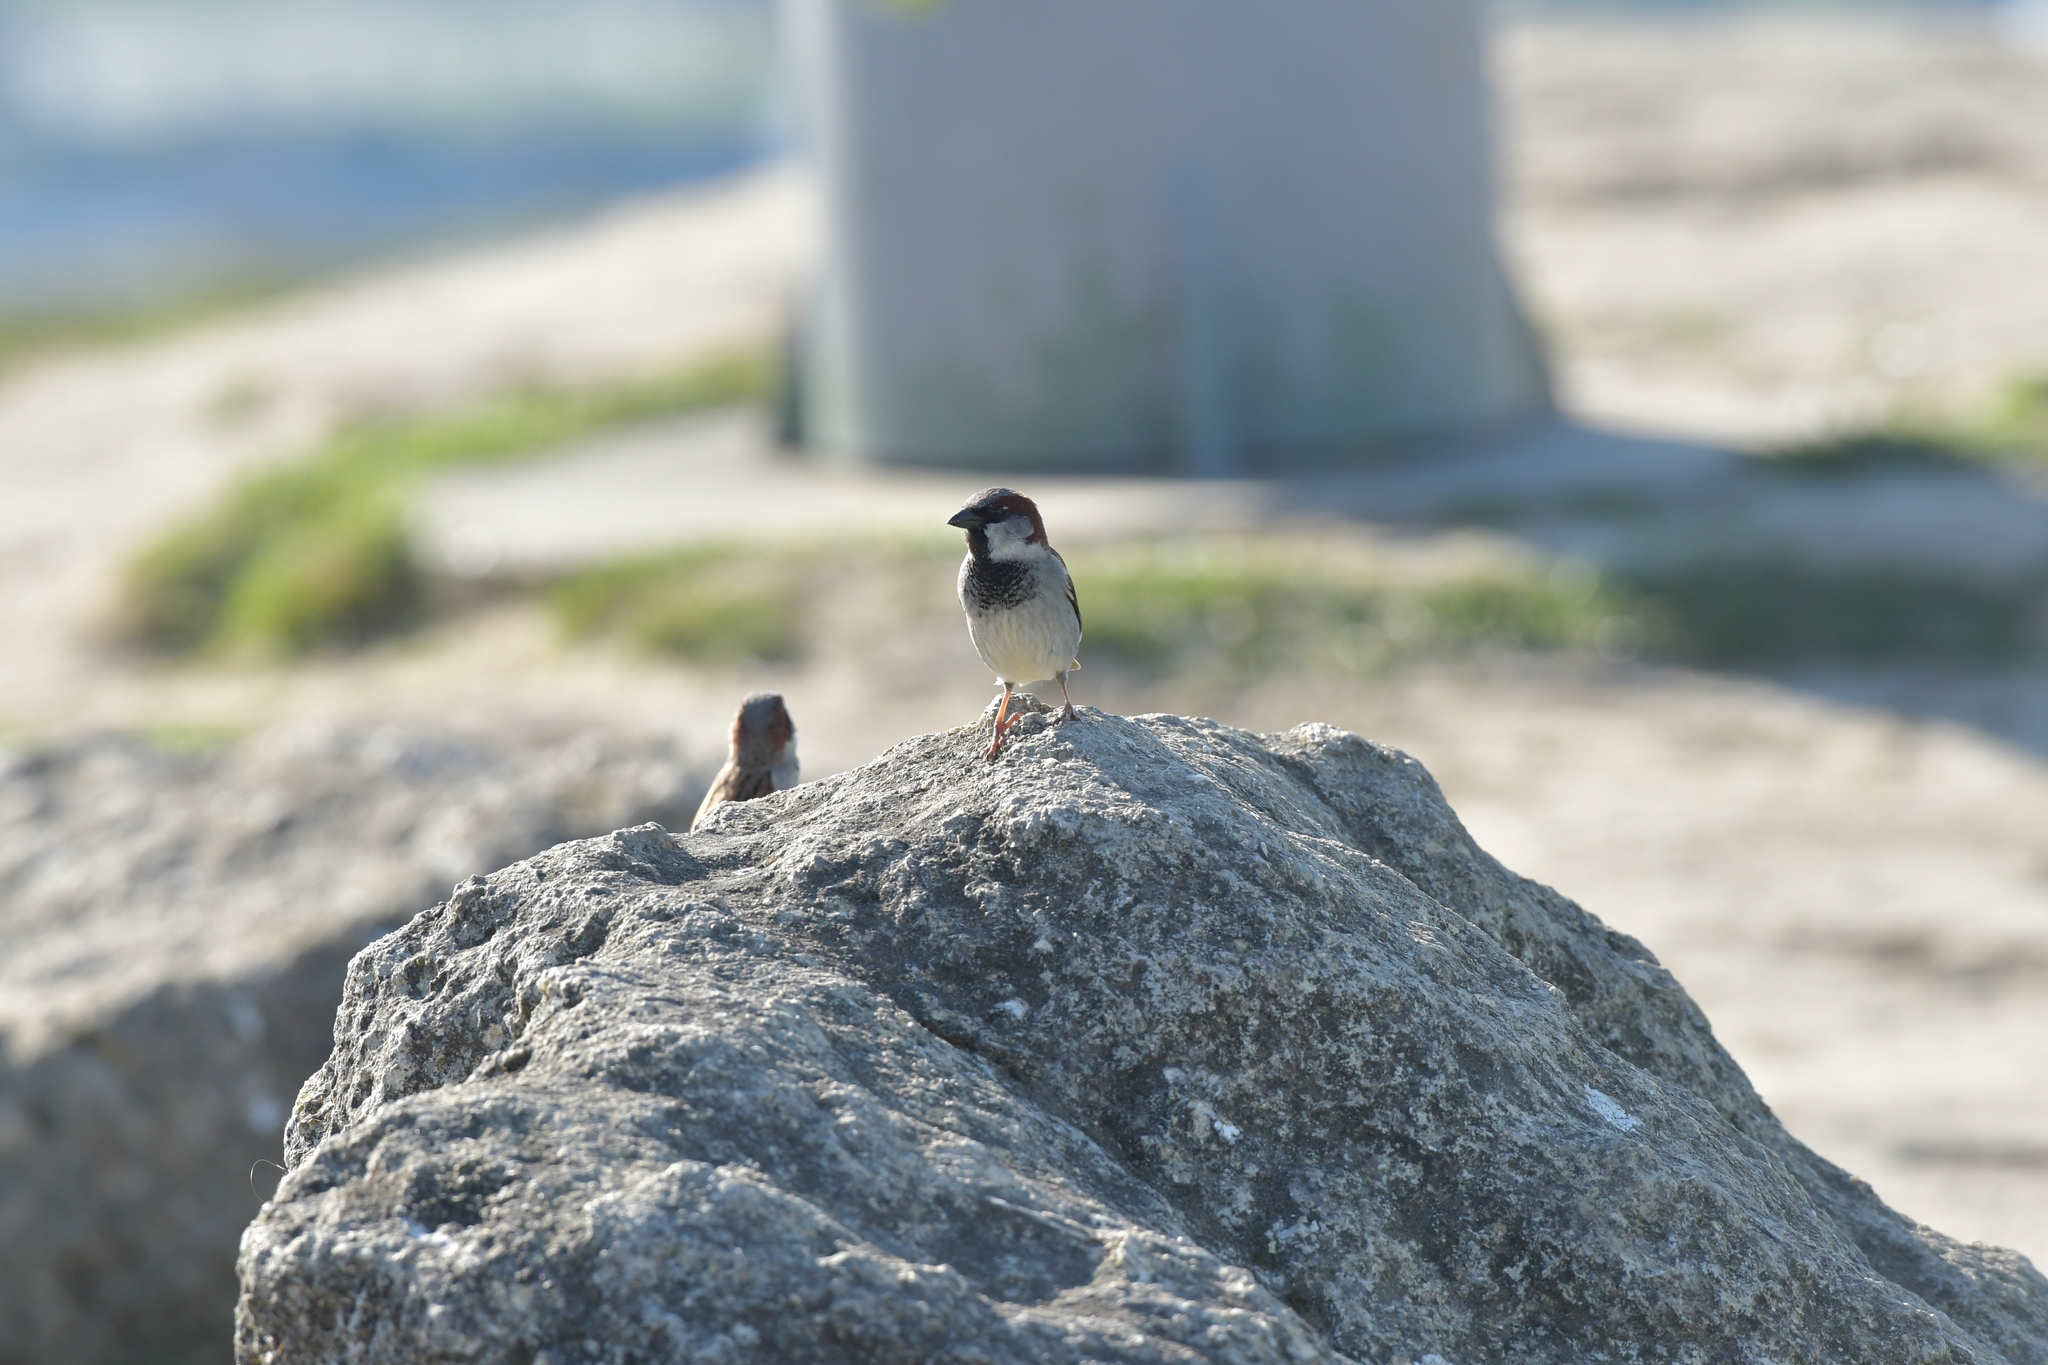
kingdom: Animalia
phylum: Chordata
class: Aves
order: Passeriformes
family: Passeridae
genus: Passer
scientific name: Passer domesticus
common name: House sparrow
